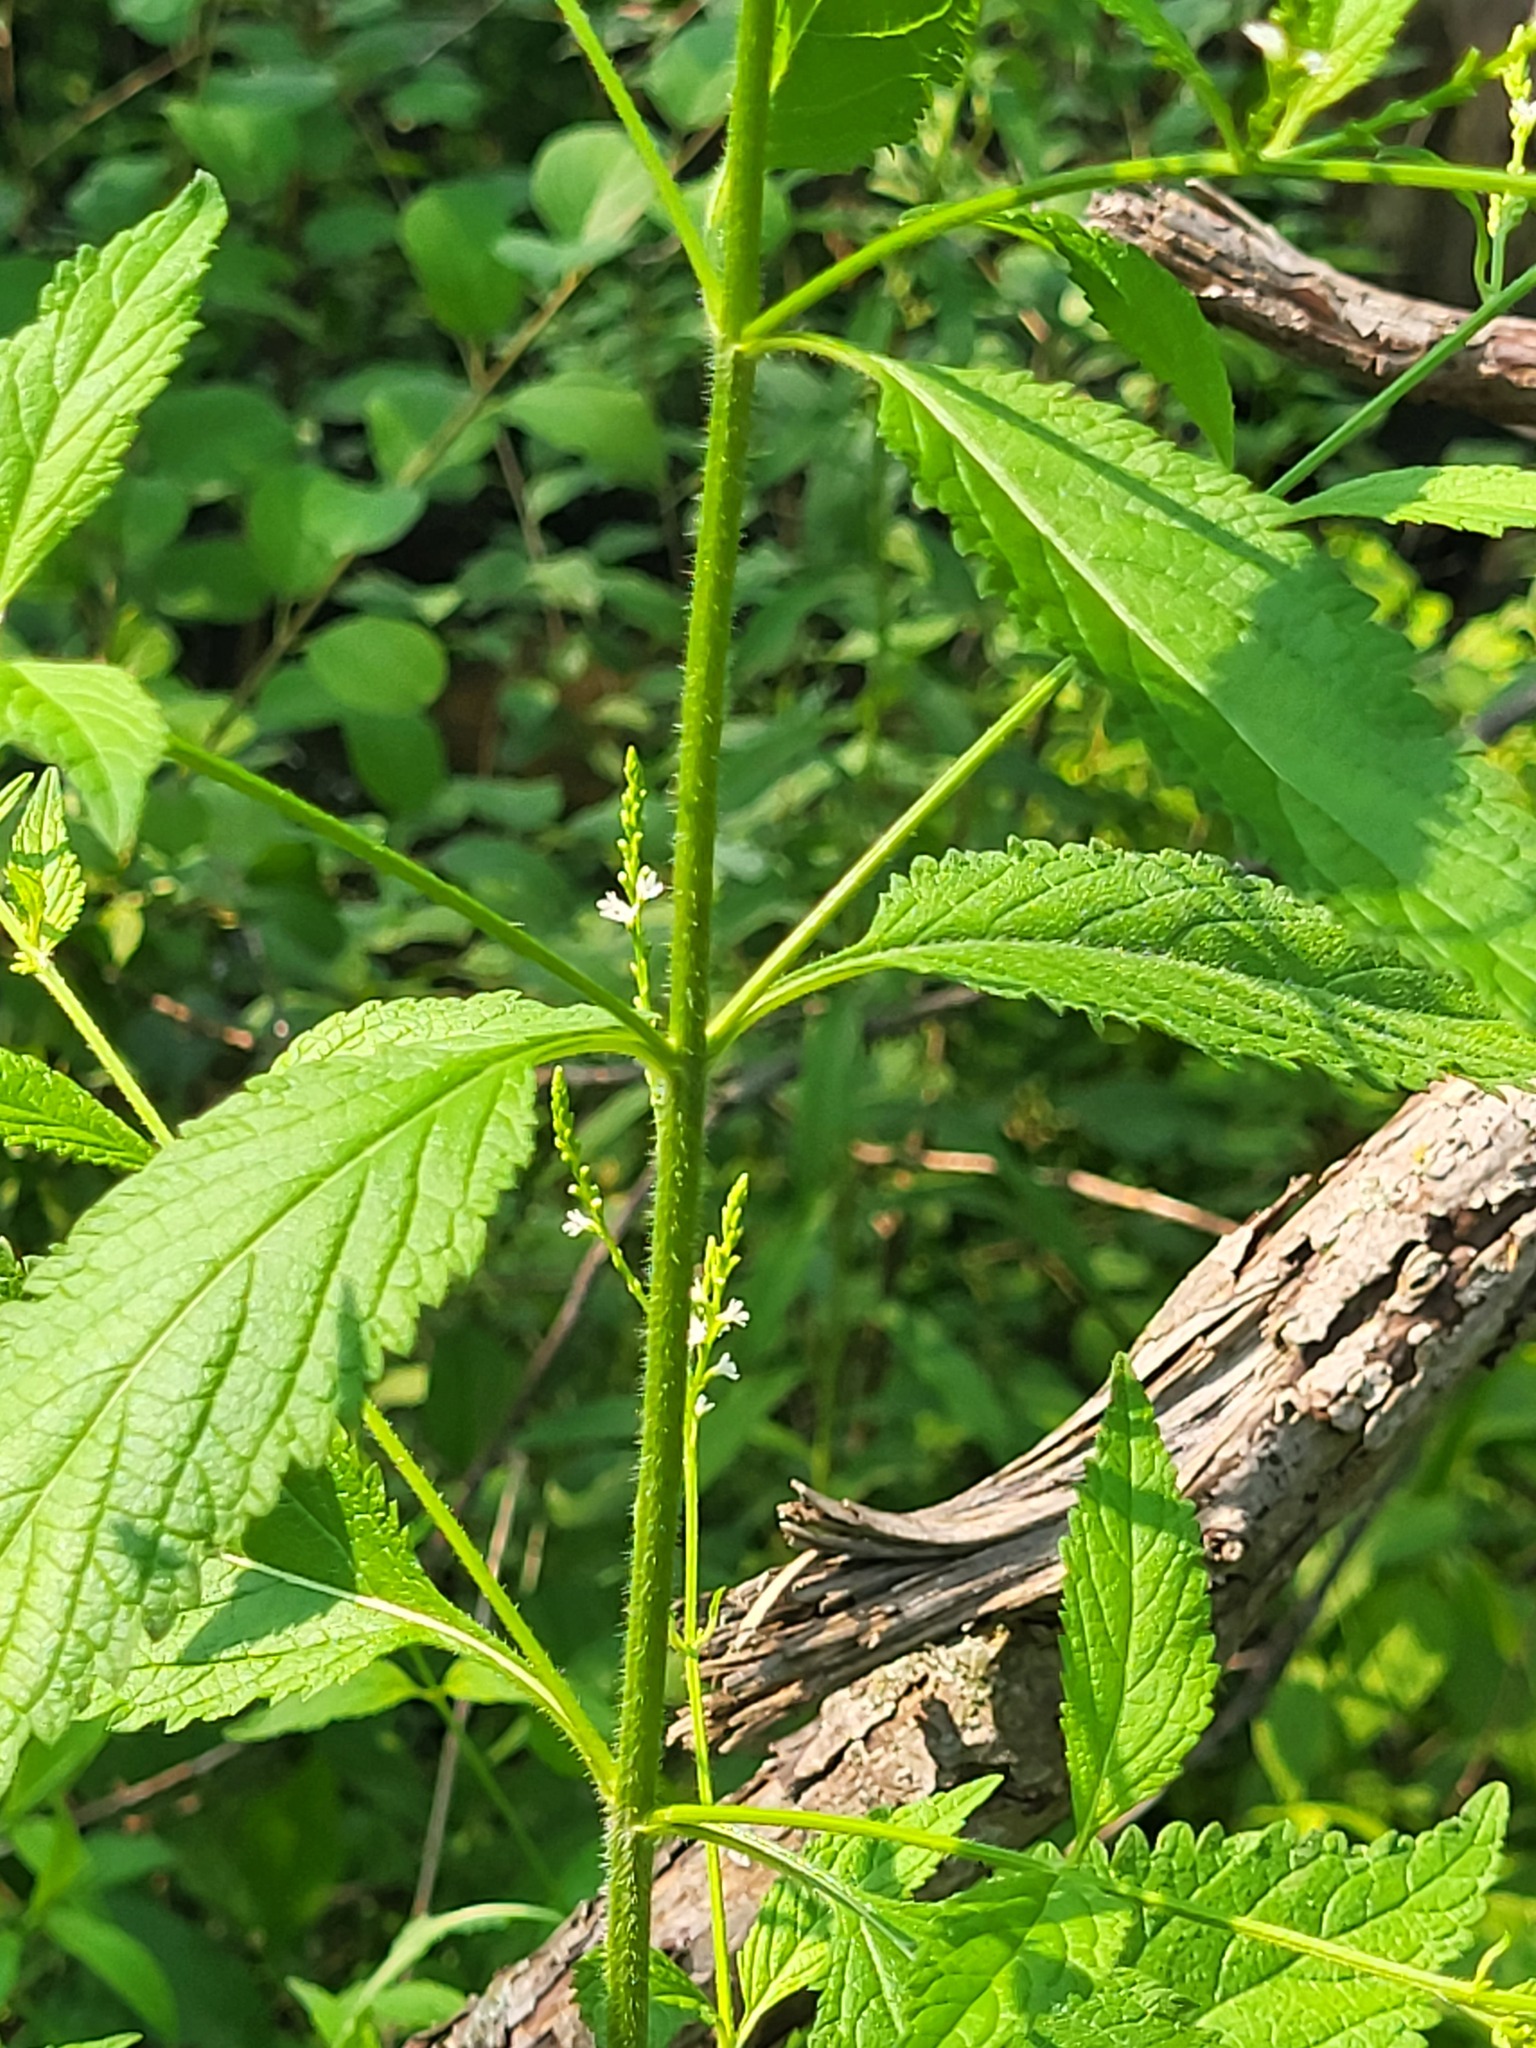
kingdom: Plantae
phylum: Tracheophyta
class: Magnoliopsida
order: Lamiales
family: Verbenaceae
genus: Verbena
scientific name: Verbena urticifolia
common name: Nettle-leaved vervain
